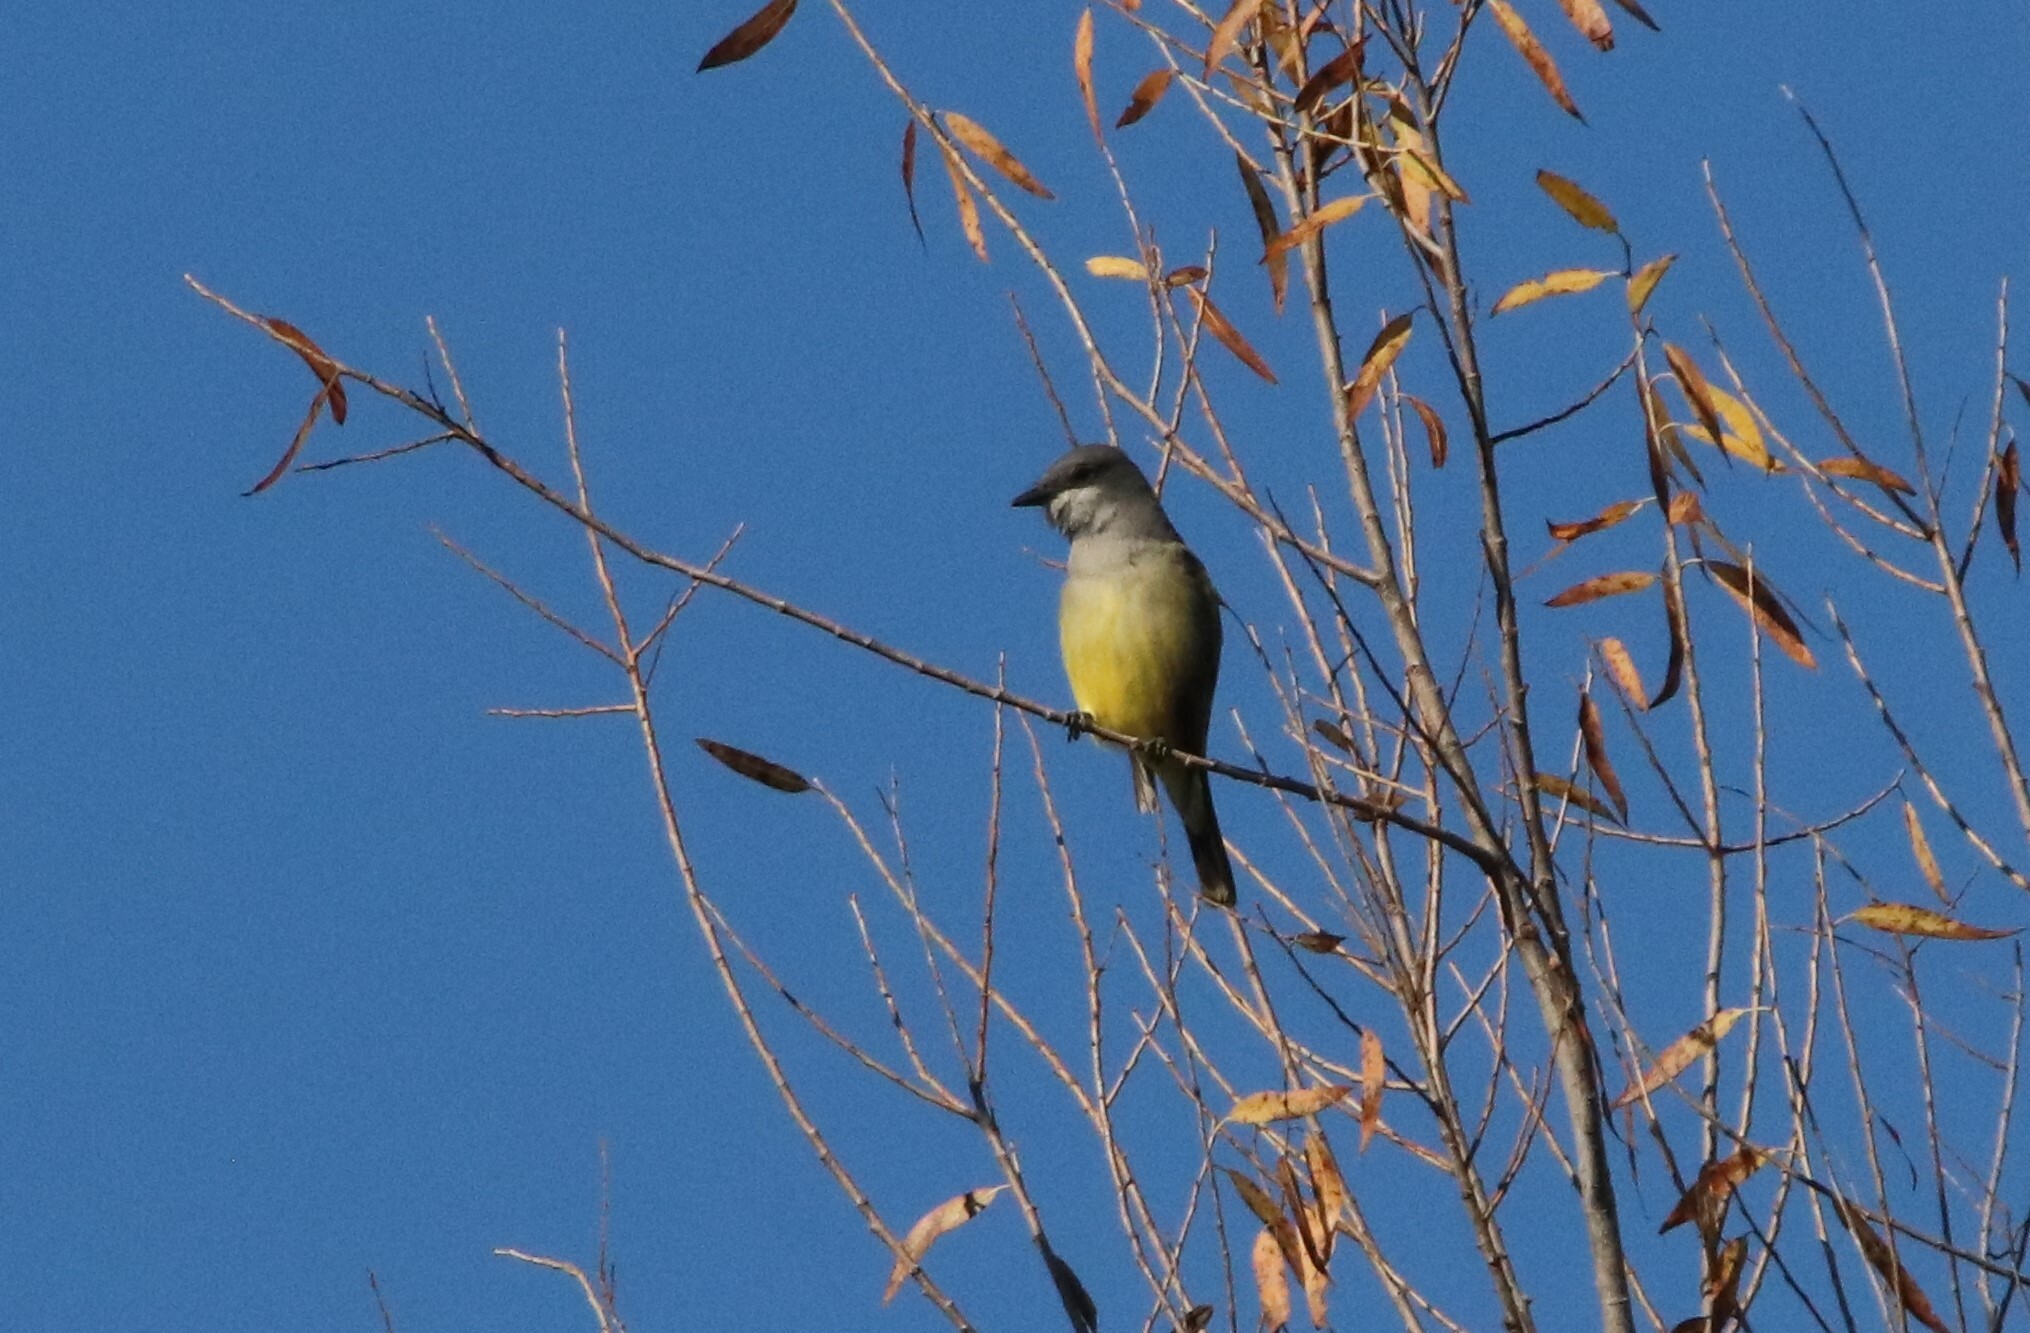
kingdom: Animalia
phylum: Chordata
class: Aves
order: Passeriformes
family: Tyrannidae
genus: Tyrannus
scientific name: Tyrannus vociferans
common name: Cassin's kingbird
